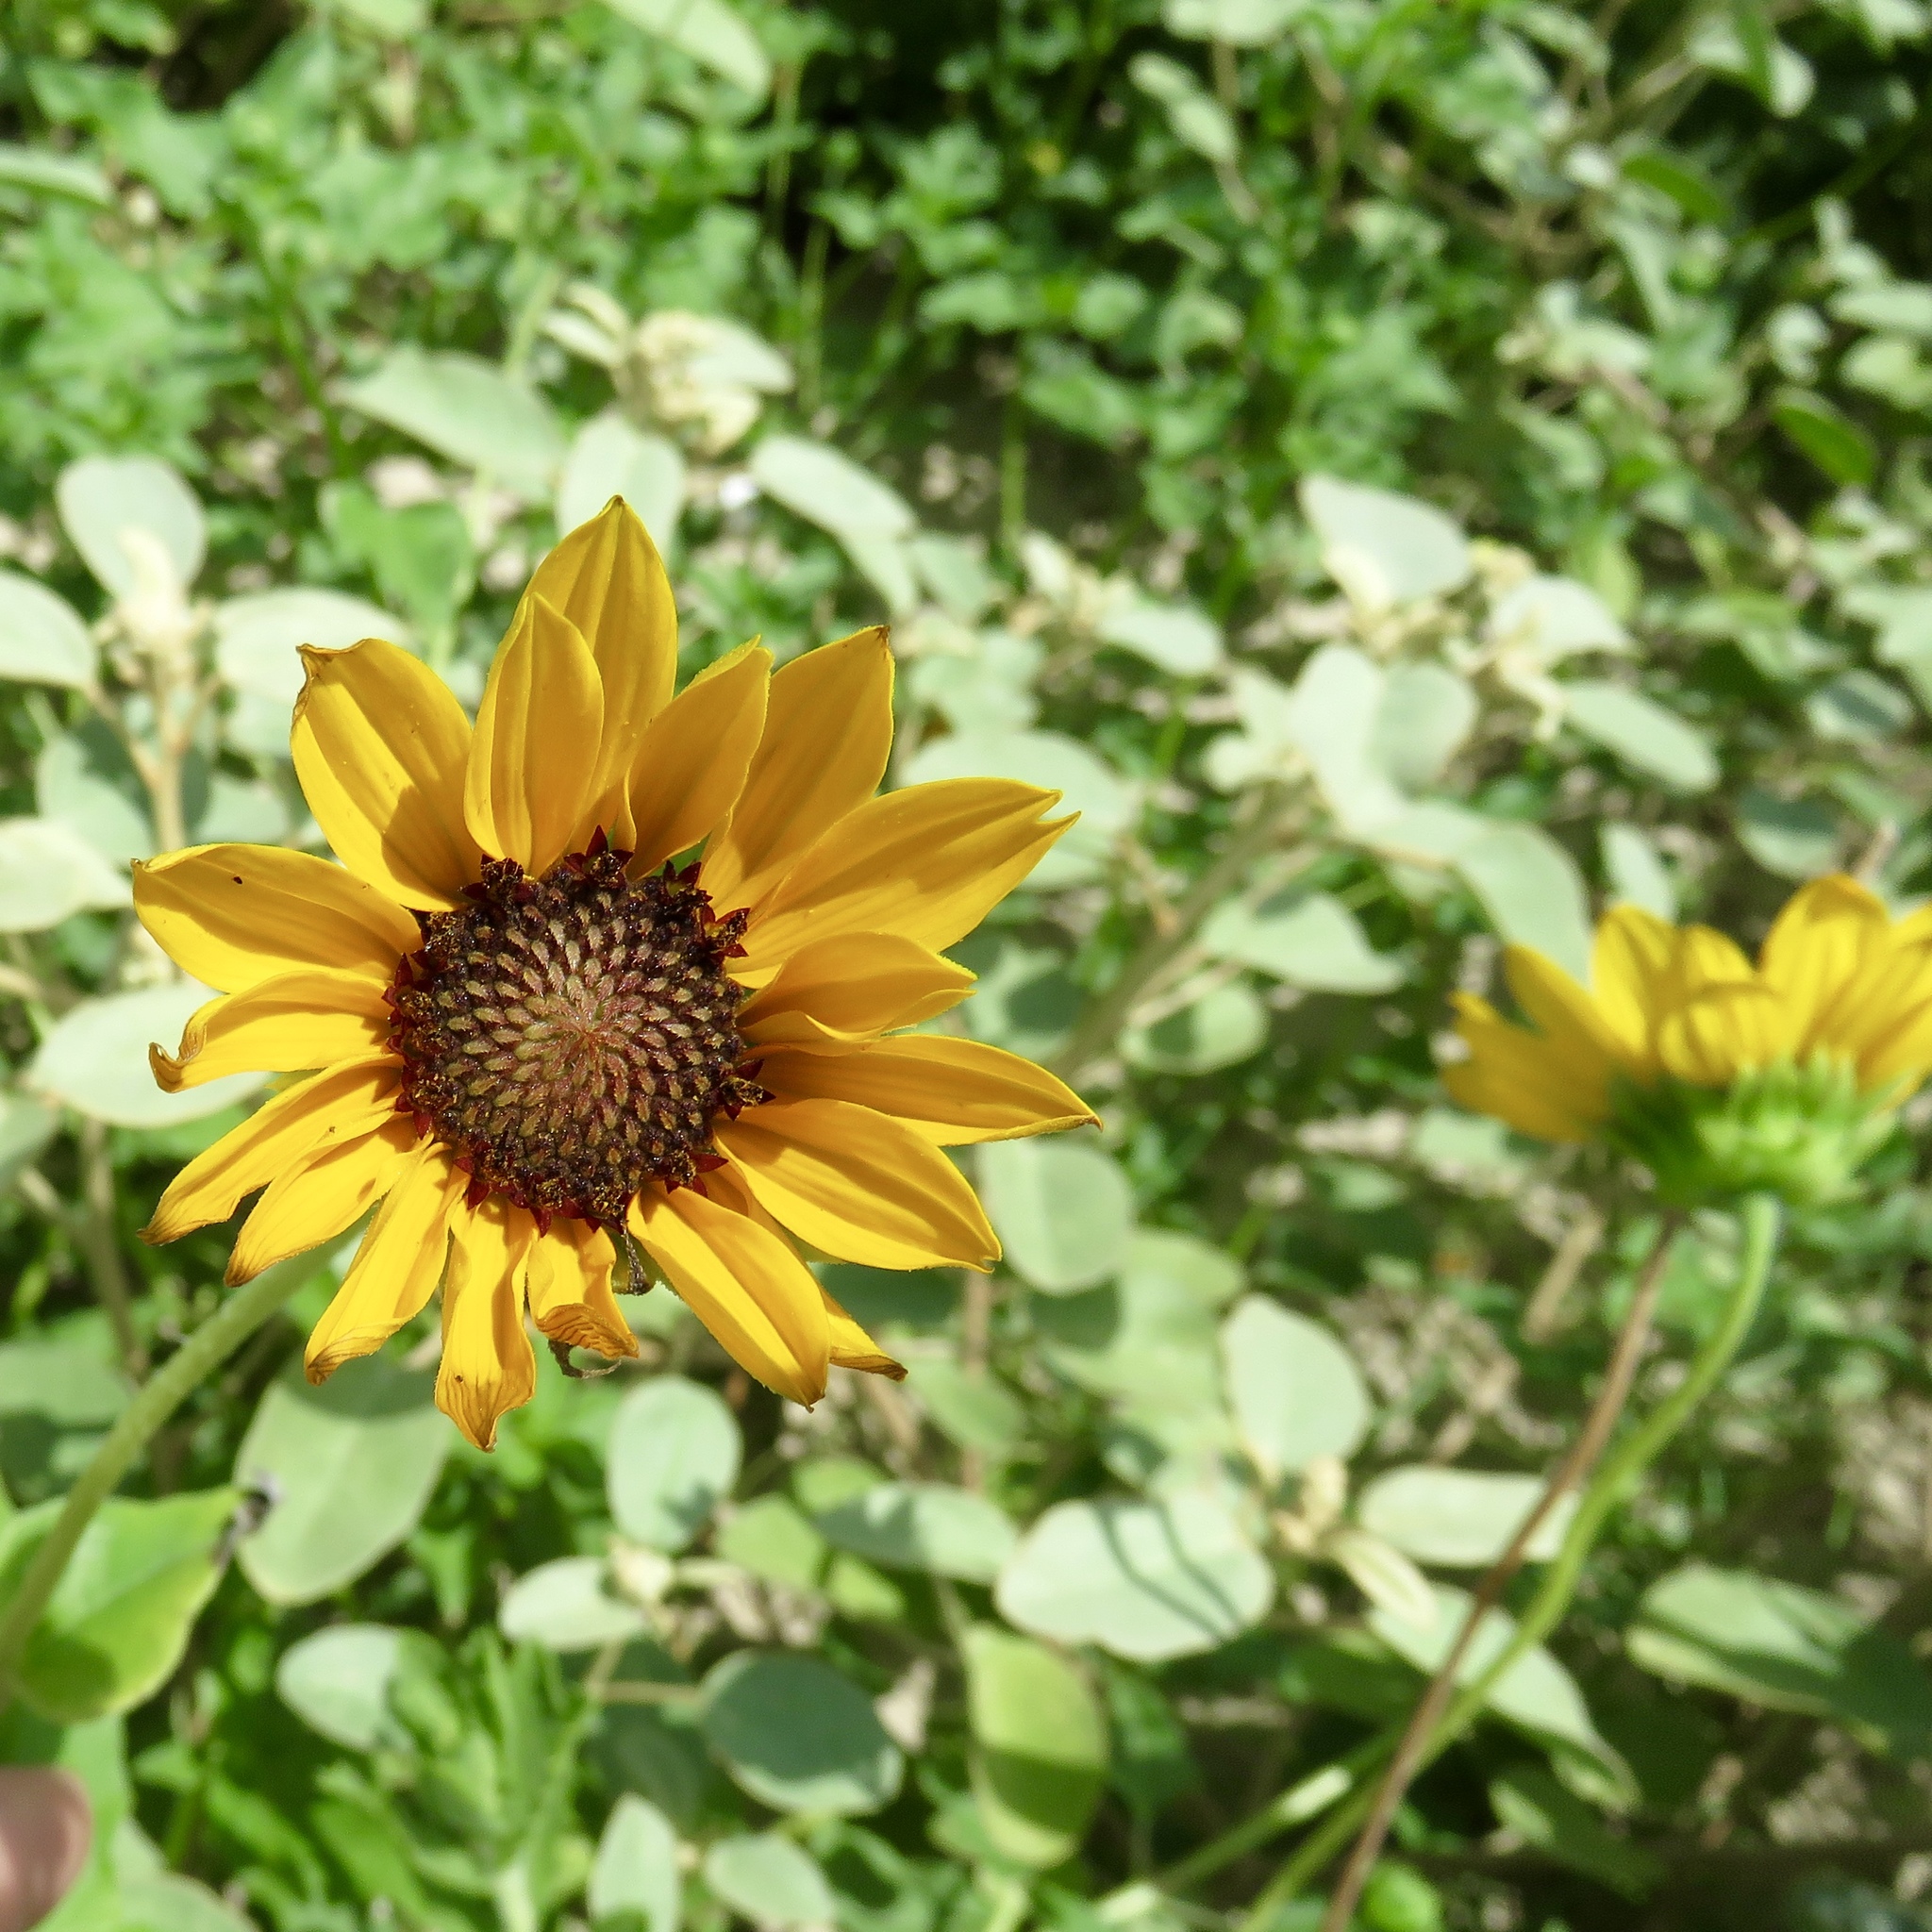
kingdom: Plantae
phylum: Tracheophyta
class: Magnoliopsida
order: Asterales
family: Asteraceae
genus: Helianthus
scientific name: Helianthus praecox
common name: Texas sunflower
